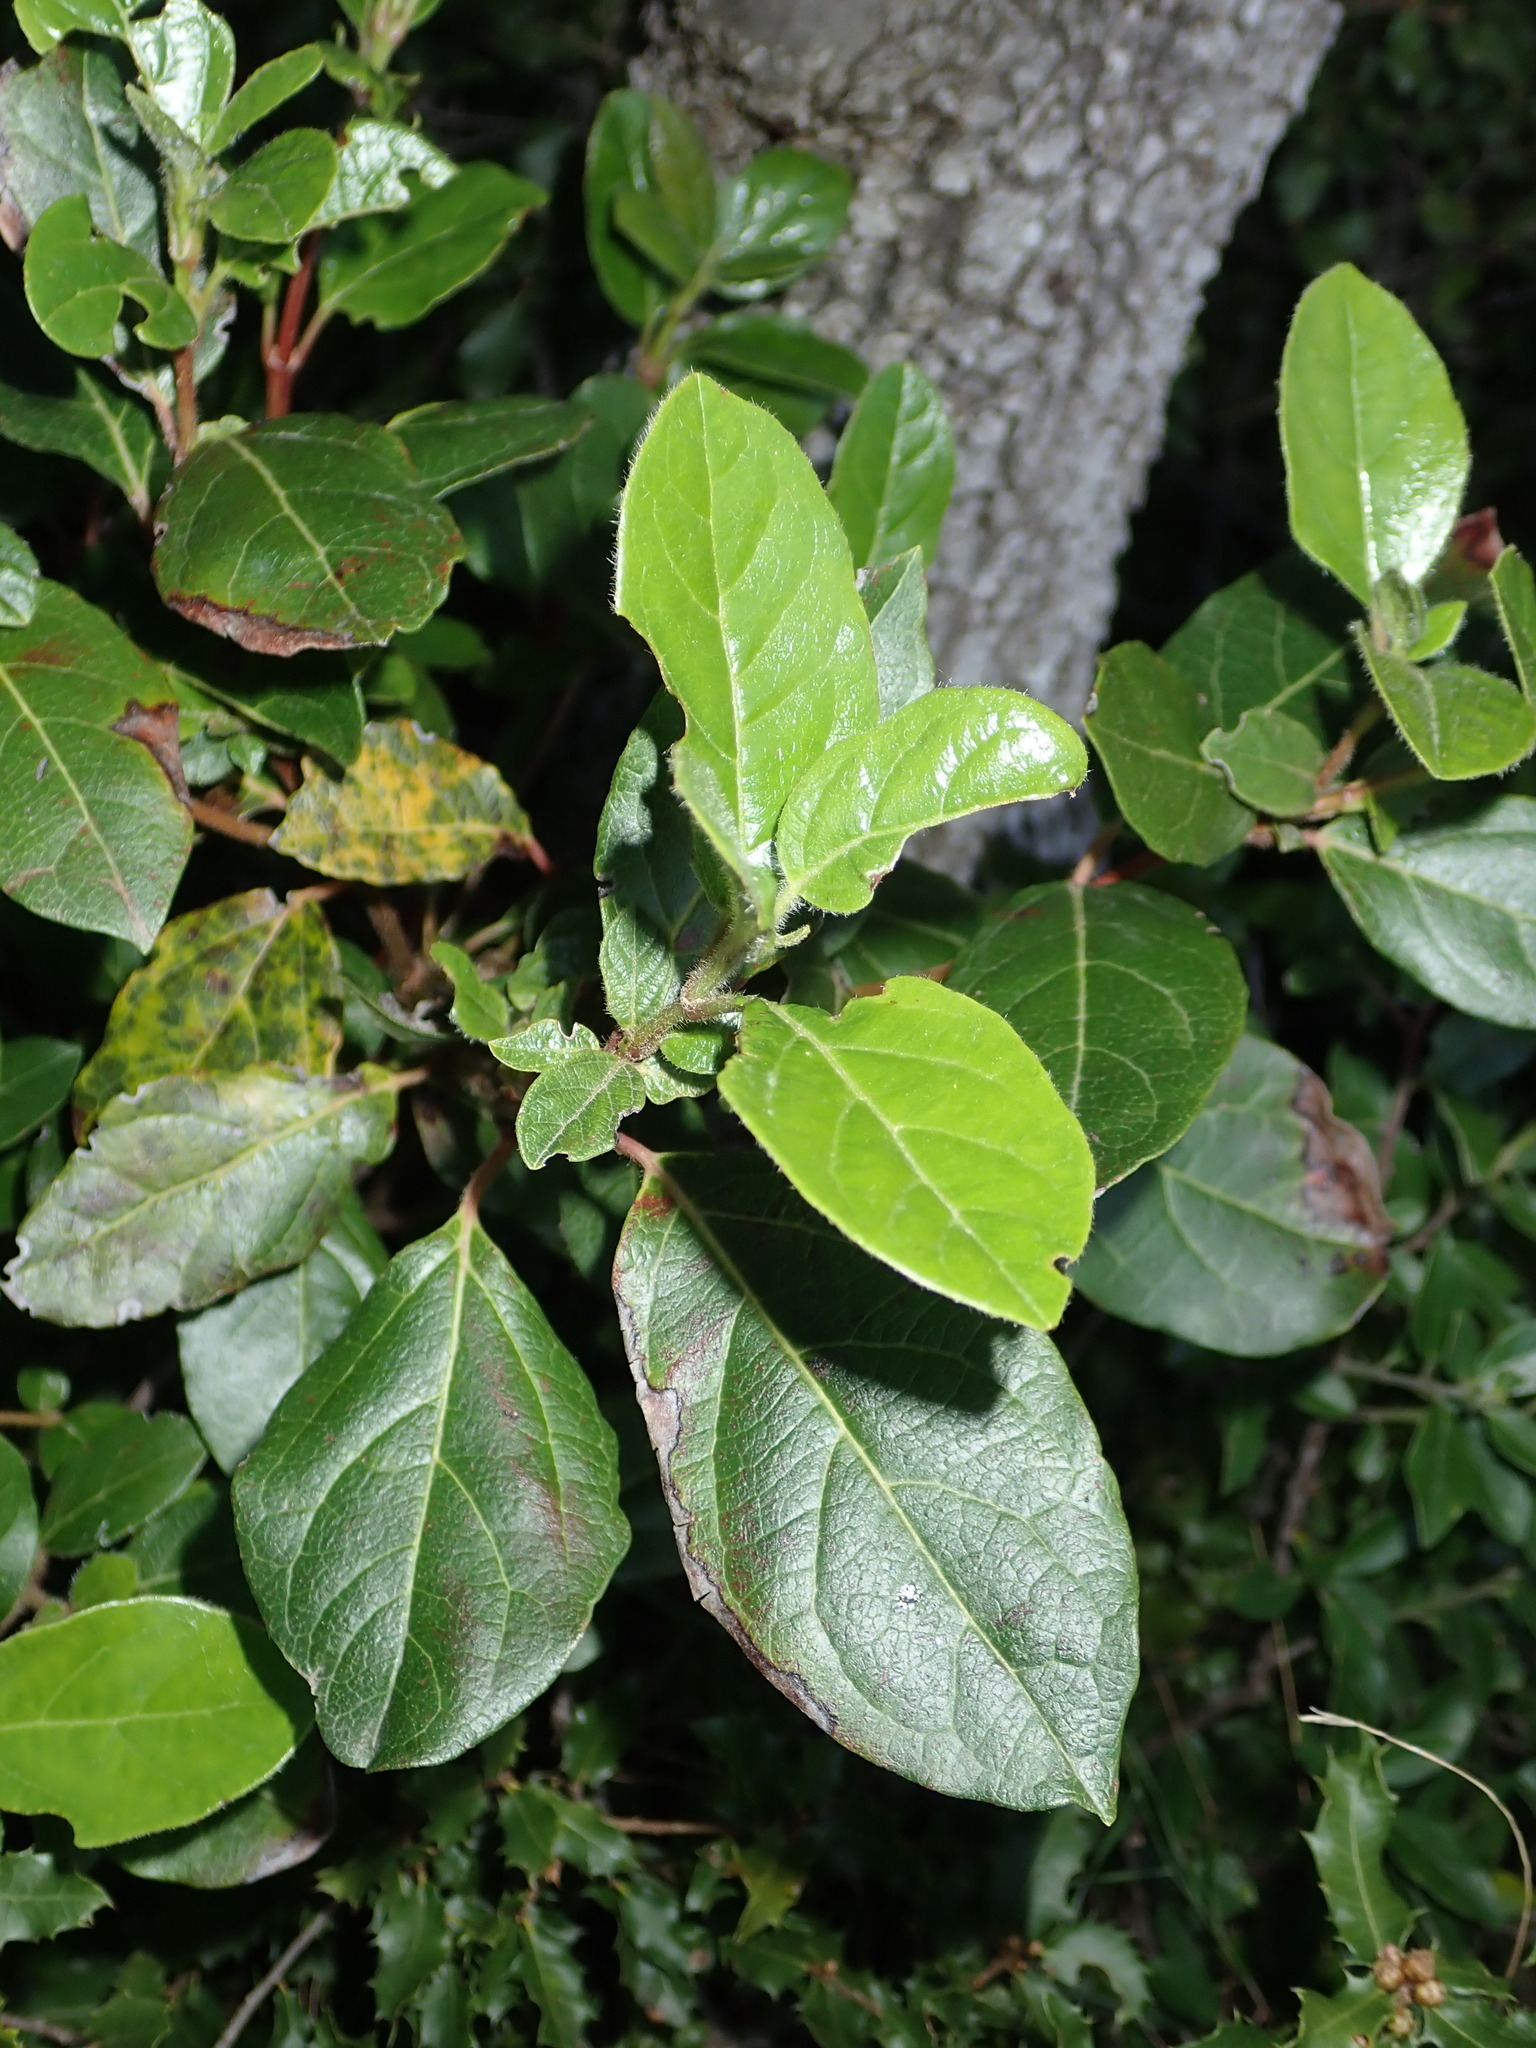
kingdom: Plantae
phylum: Tracheophyta
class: Magnoliopsida
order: Dipsacales
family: Viburnaceae
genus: Viburnum
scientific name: Viburnum tinus
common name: Laurustinus
